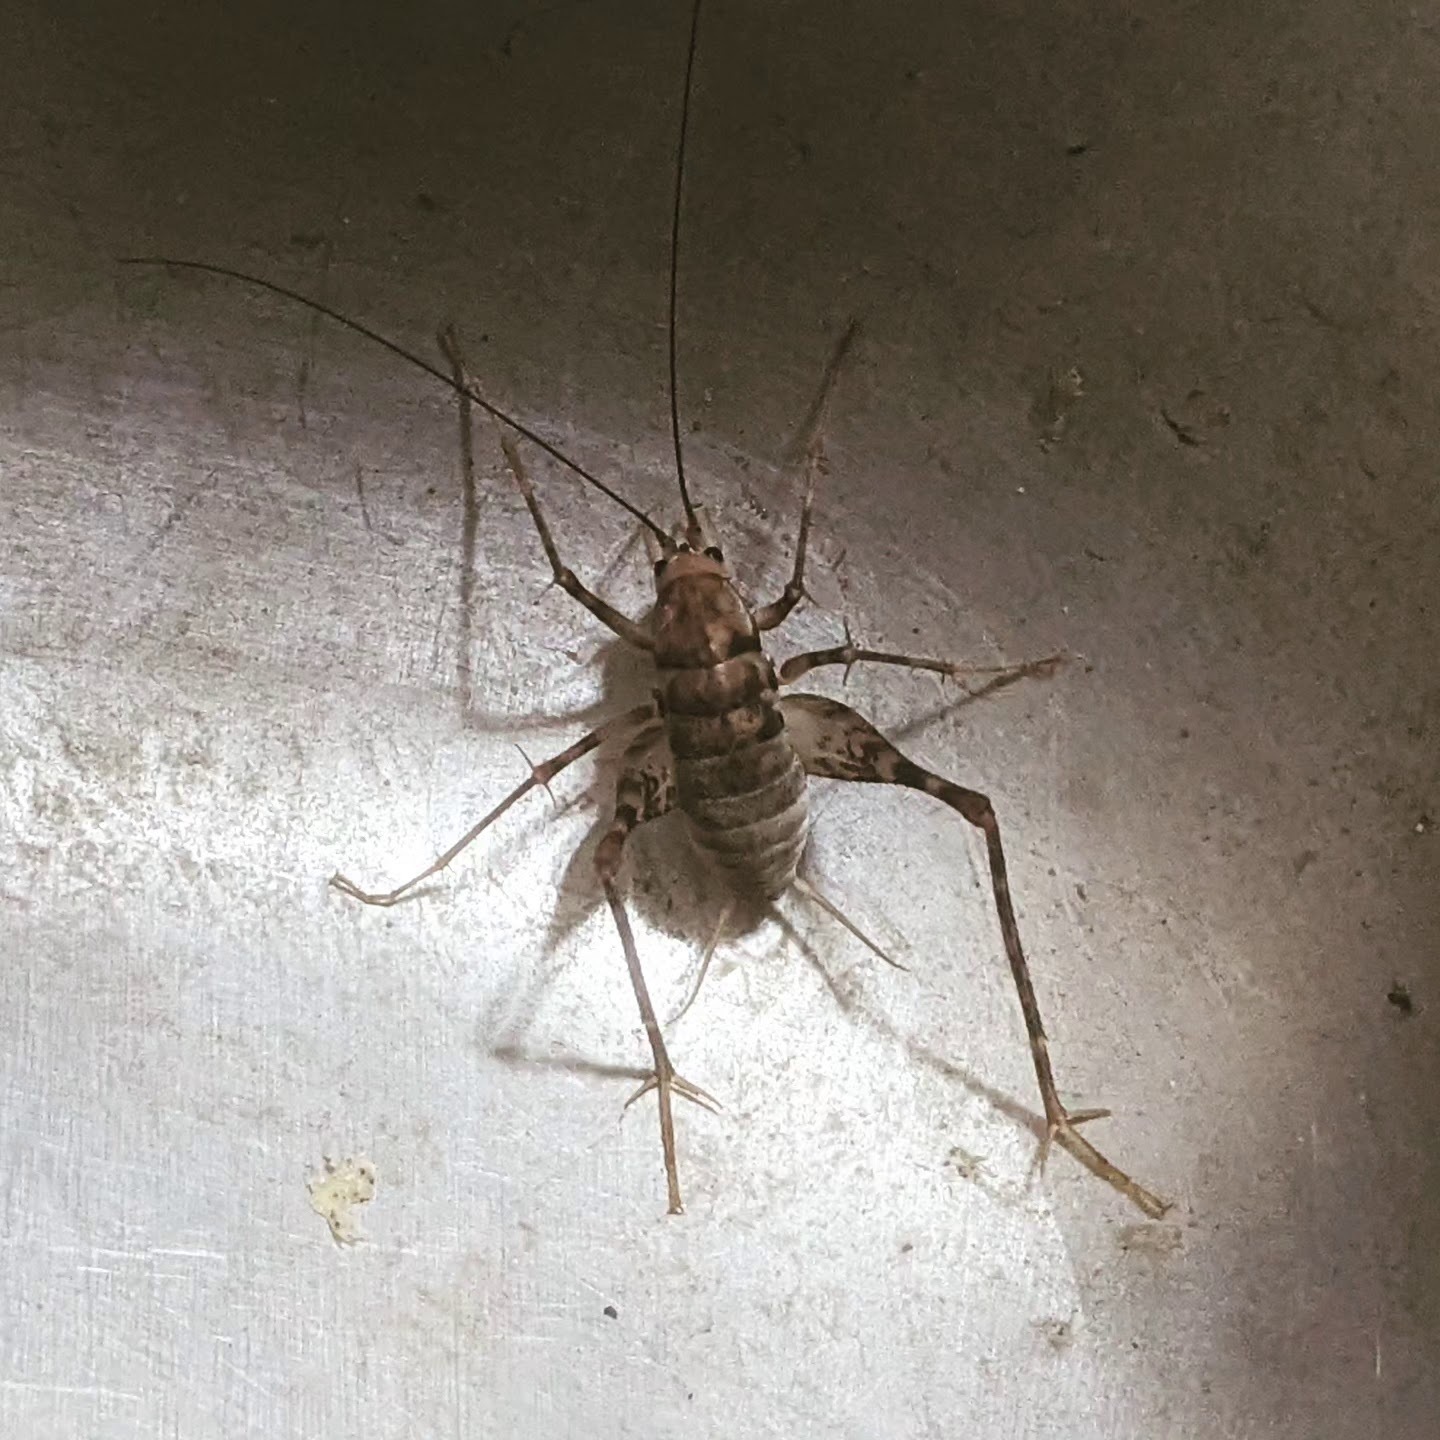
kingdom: Animalia
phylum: Arthropoda
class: Insecta
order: Orthoptera
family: Rhaphidophoridae
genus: Tachycines
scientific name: Tachycines asynamorus
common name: Greenhouse camel cricket
